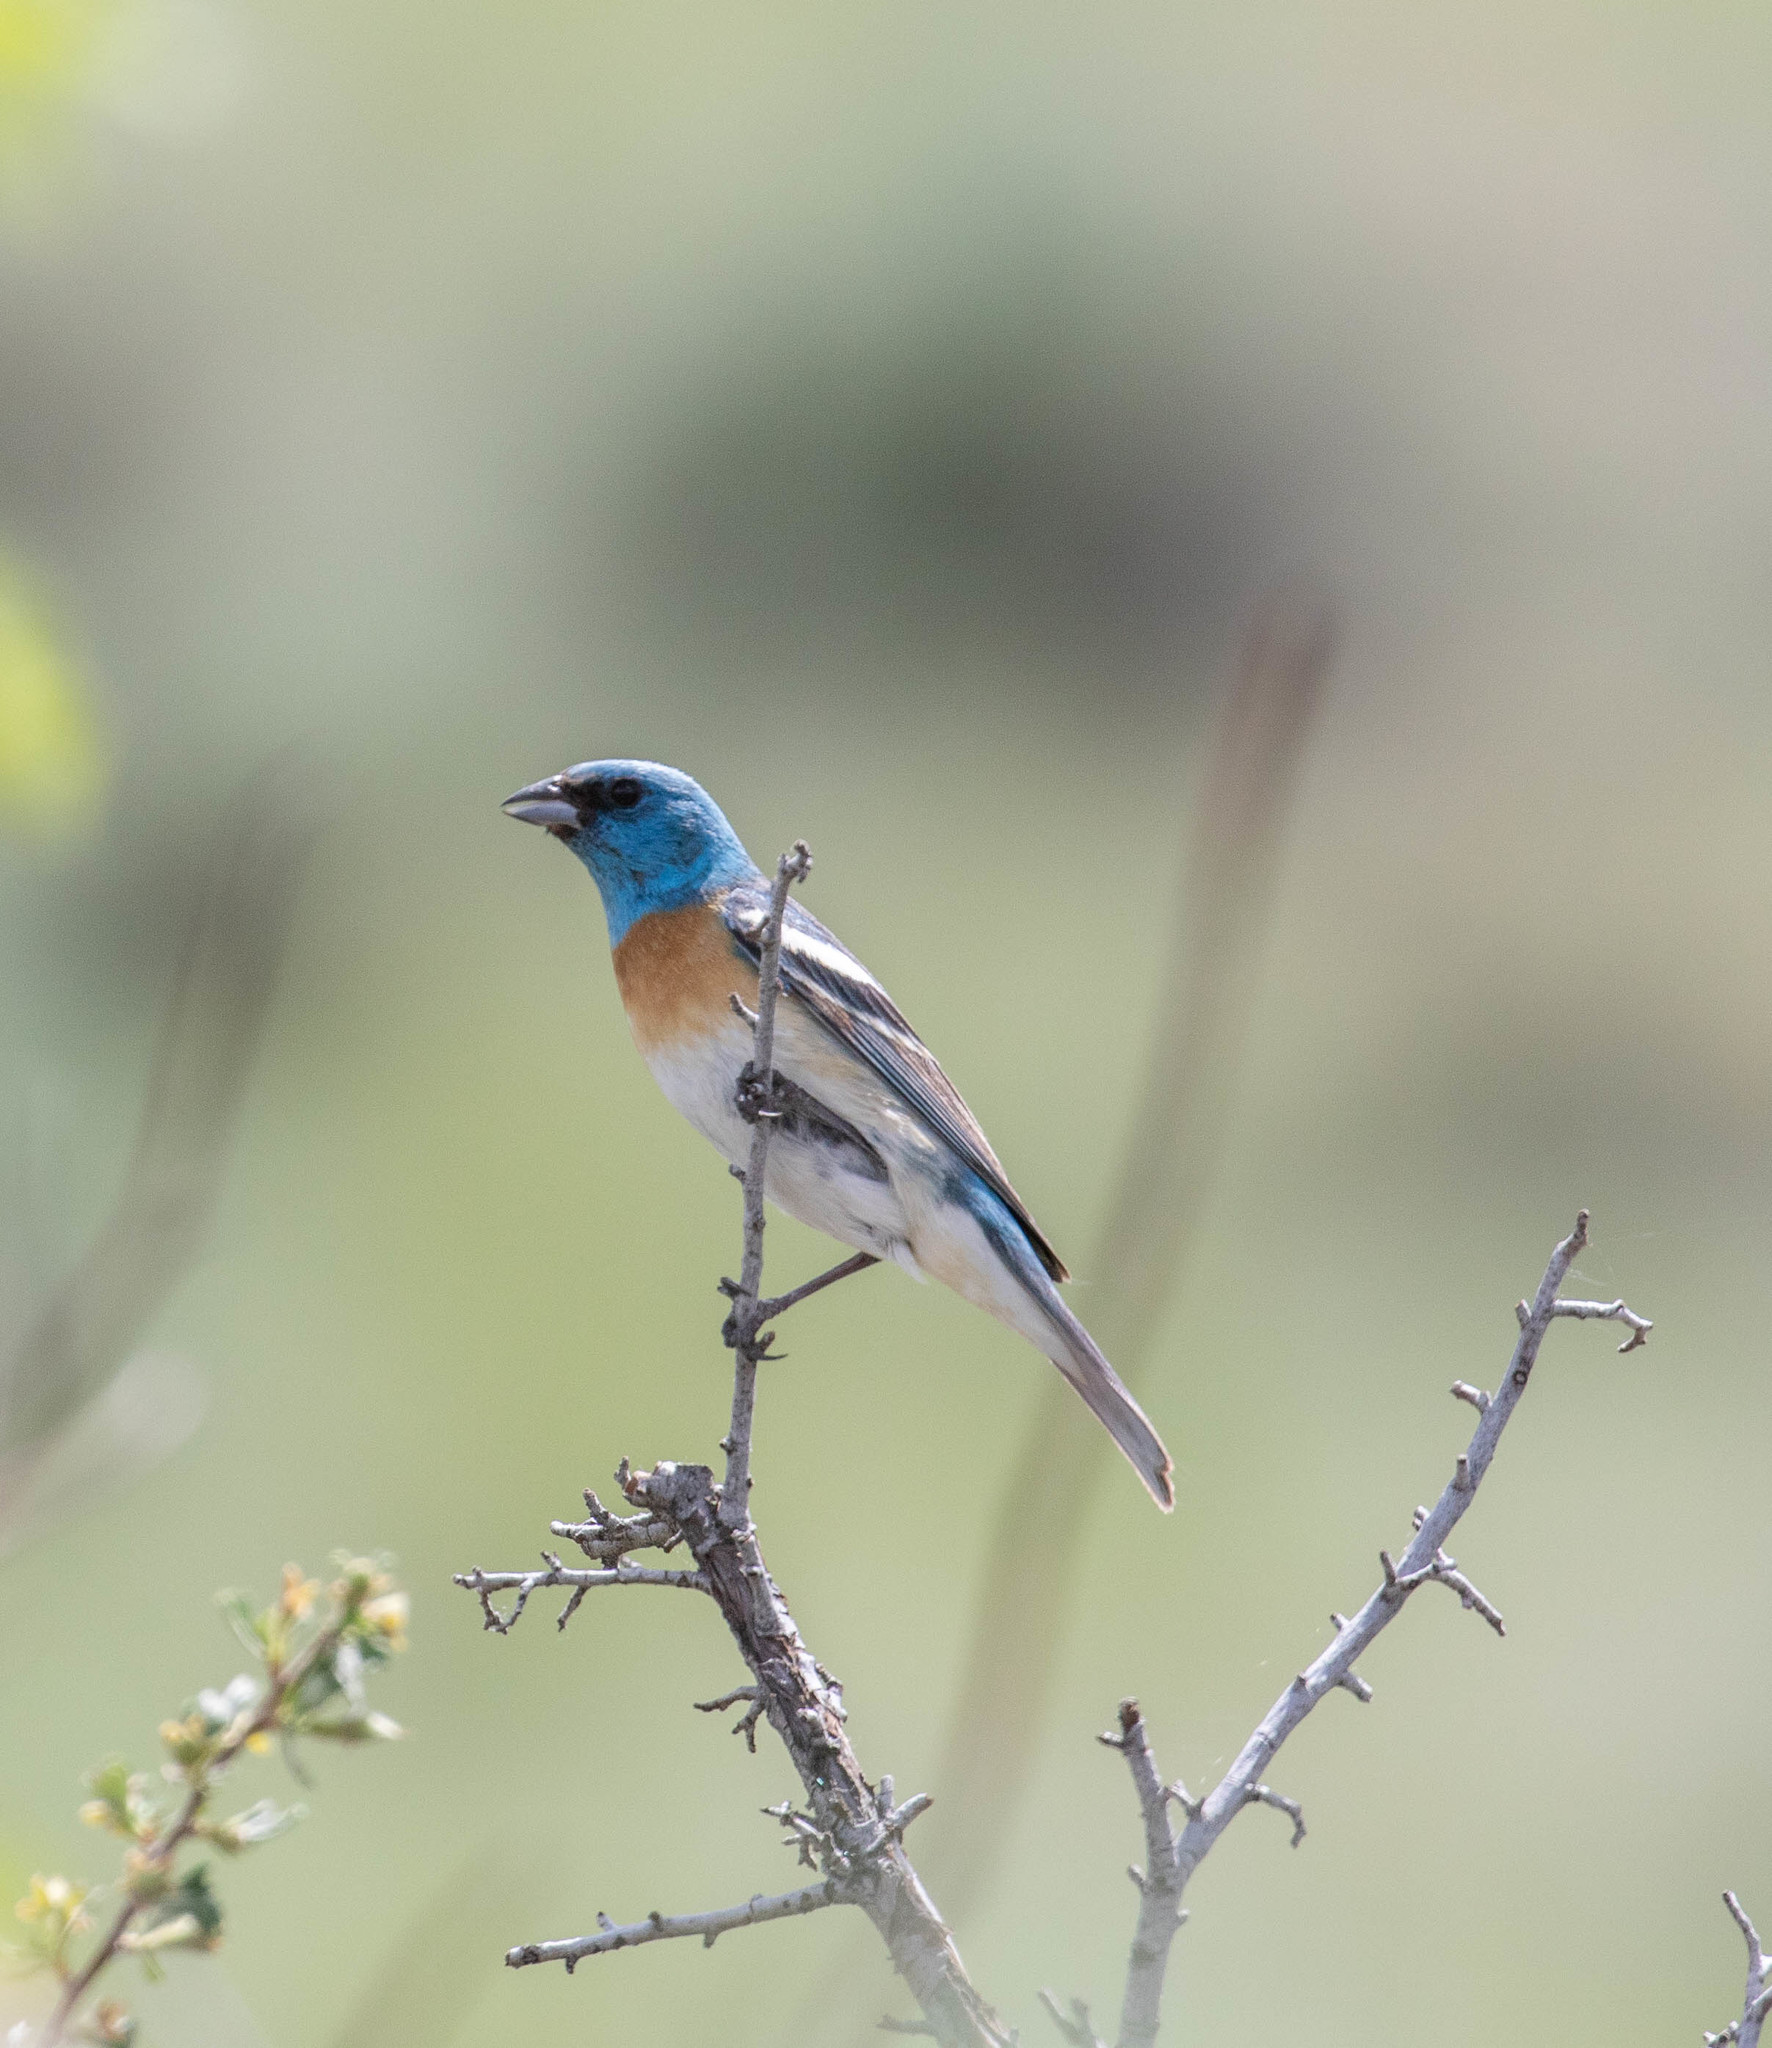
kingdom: Animalia
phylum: Chordata
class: Aves
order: Passeriformes
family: Cardinalidae
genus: Passerina
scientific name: Passerina amoena
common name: Lazuli bunting
